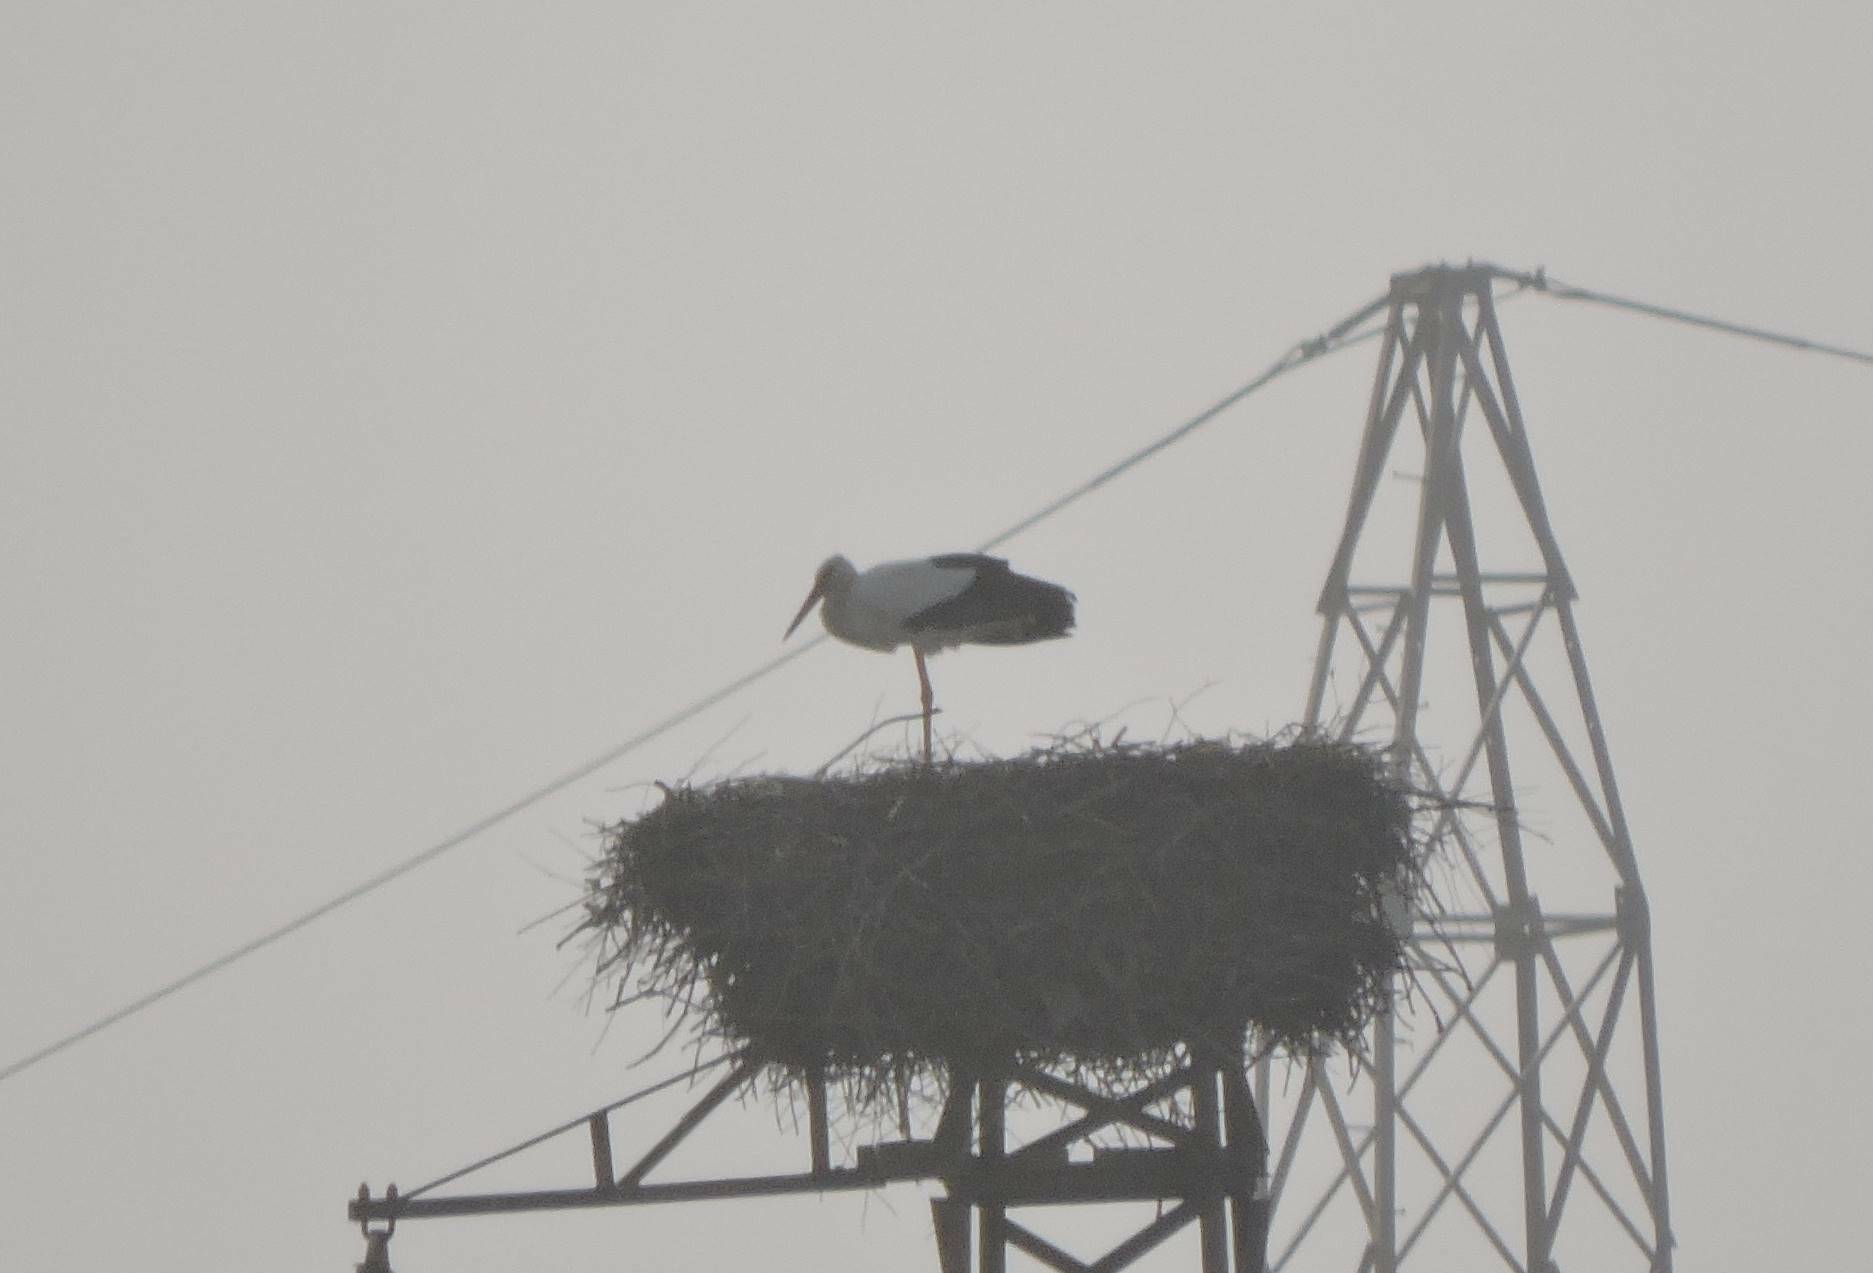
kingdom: Animalia
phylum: Chordata
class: Aves
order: Ciconiiformes
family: Ciconiidae
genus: Ciconia
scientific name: Ciconia ciconia
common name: White stork
